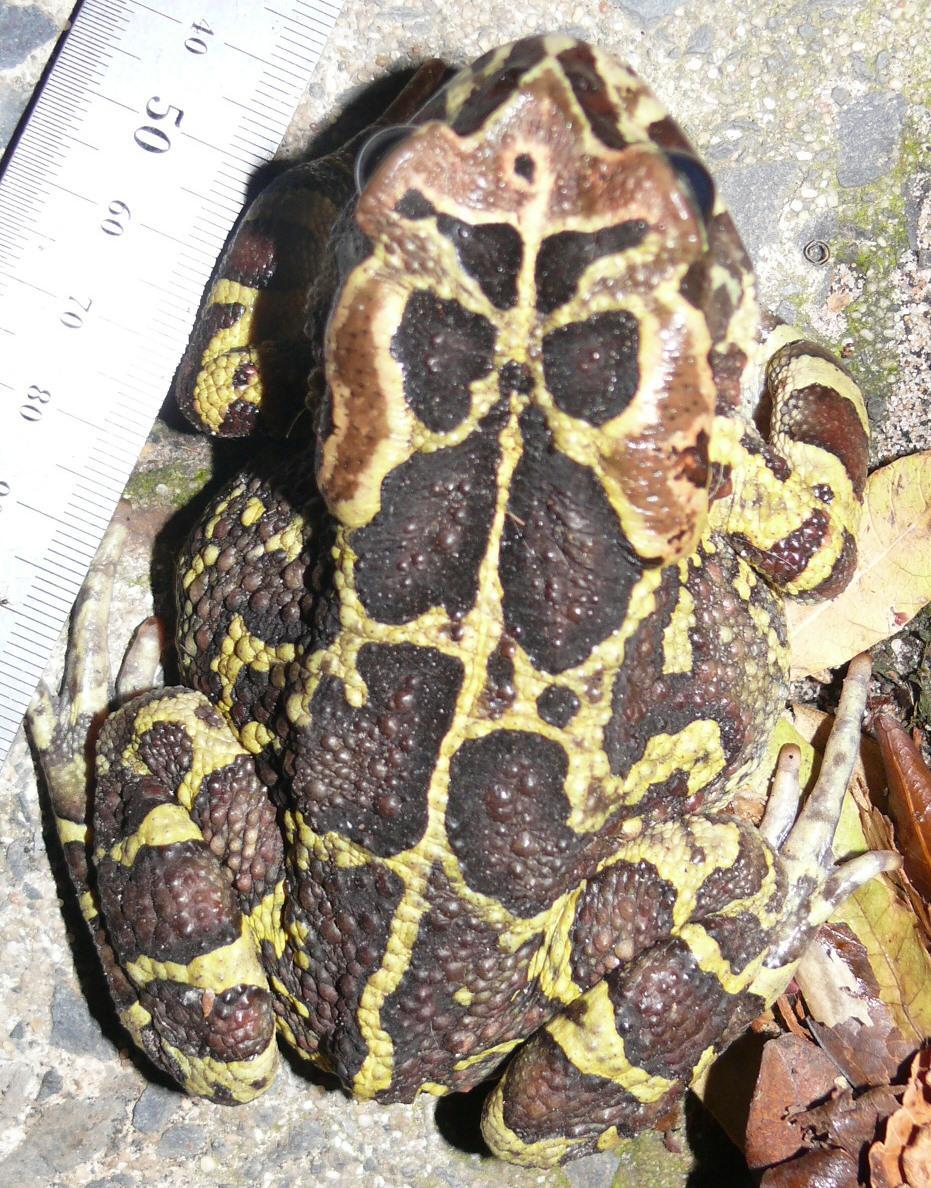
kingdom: Animalia
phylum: Chordata
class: Amphibia
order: Anura
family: Bufonidae
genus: Sclerophrys
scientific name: Sclerophrys pantherina
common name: Panther toad
